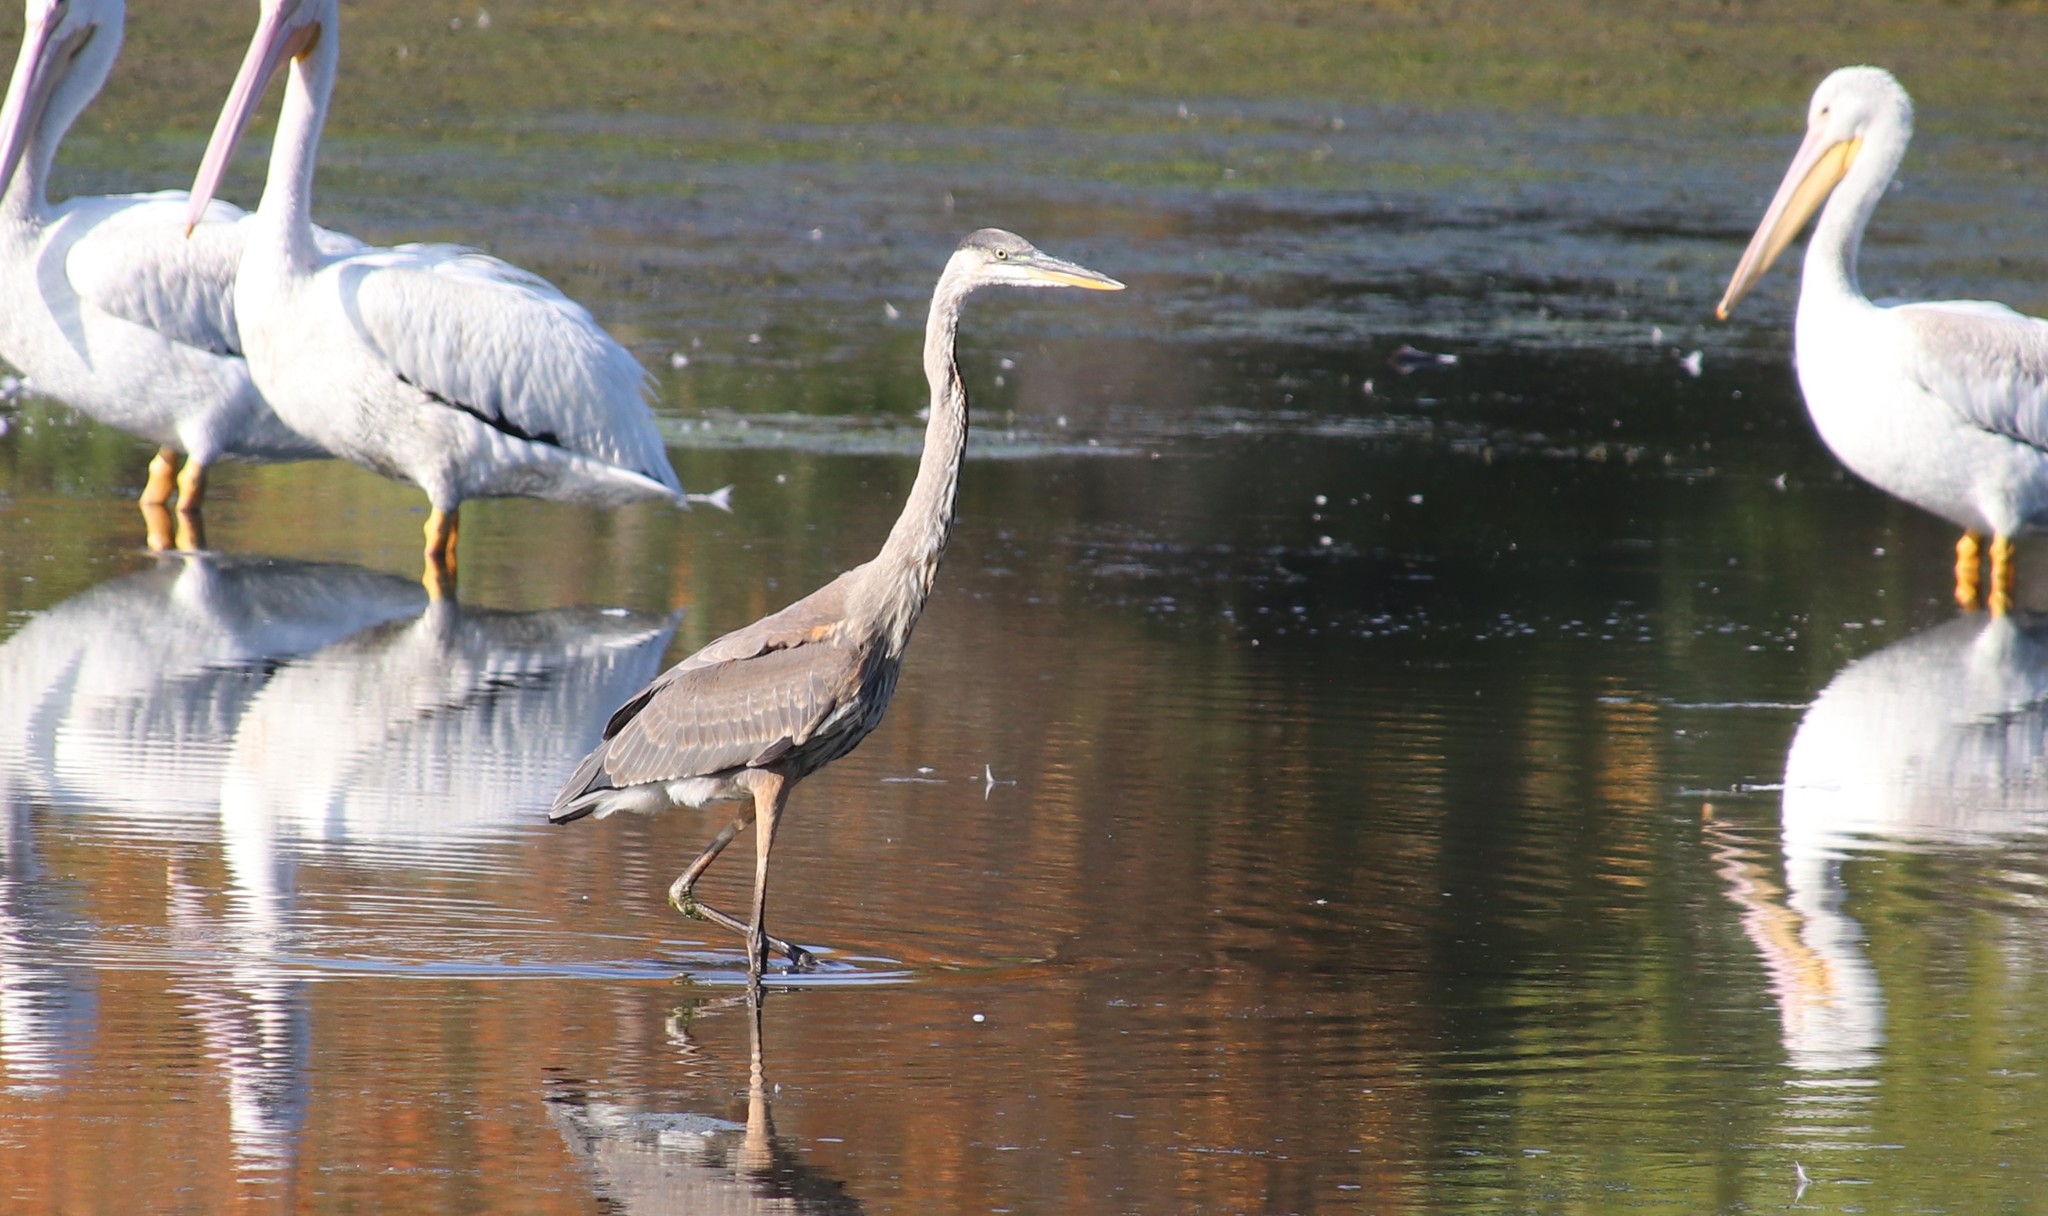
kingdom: Animalia
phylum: Chordata
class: Aves
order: Pelecaniformes
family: Ardeidae
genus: Ardea
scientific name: Ardea herodias
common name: Great blue heron
